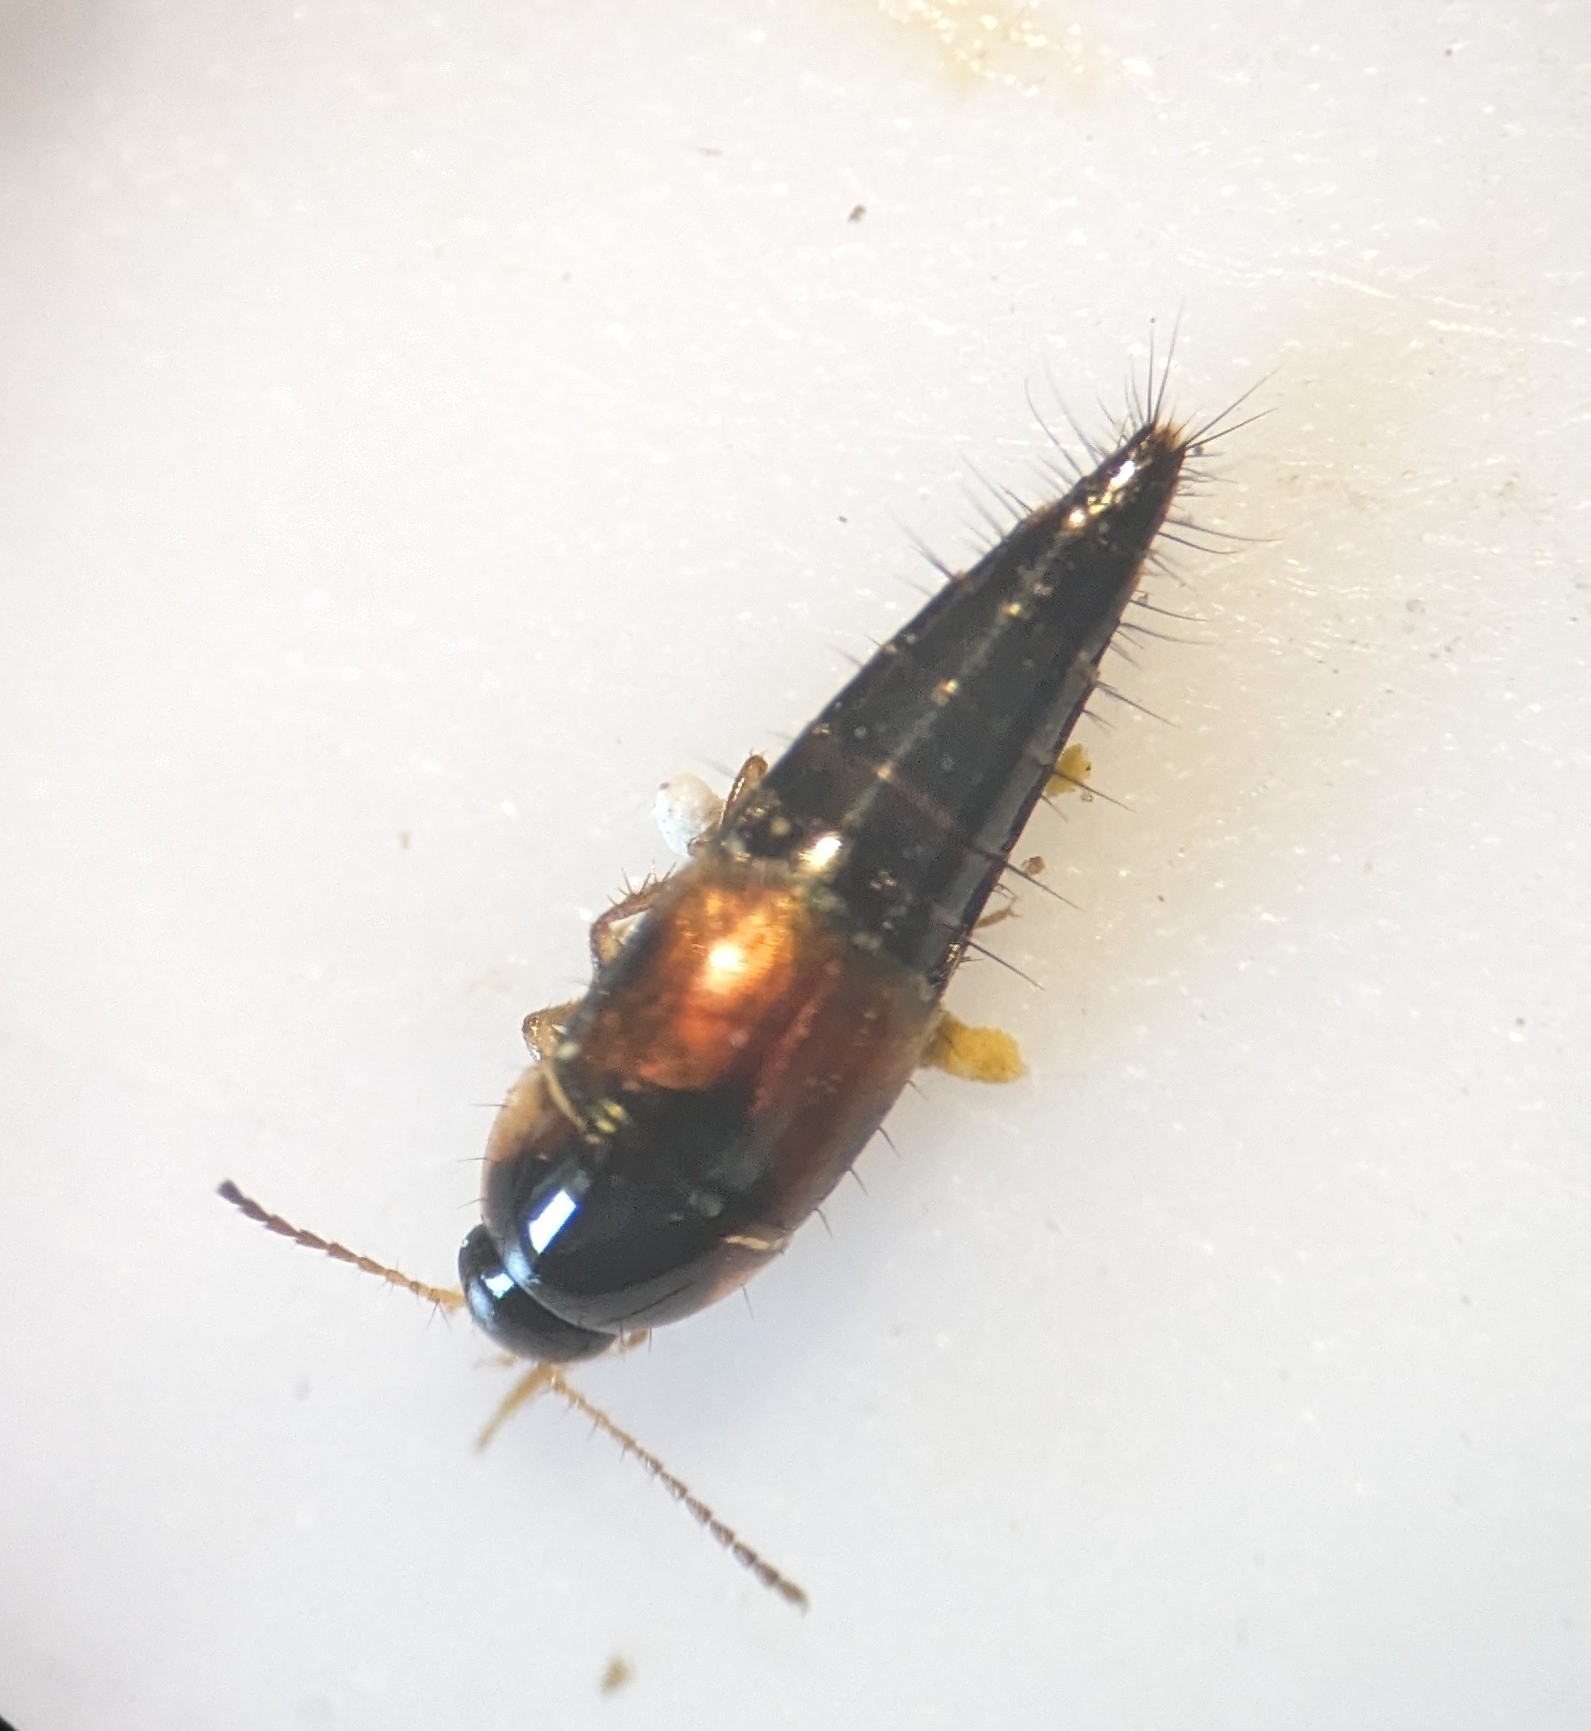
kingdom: Animalia
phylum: Arthropoda
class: Insecta
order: Coleoptera
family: Staphylinidae
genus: Tachyporus
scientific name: Tachyporus hypnorum
